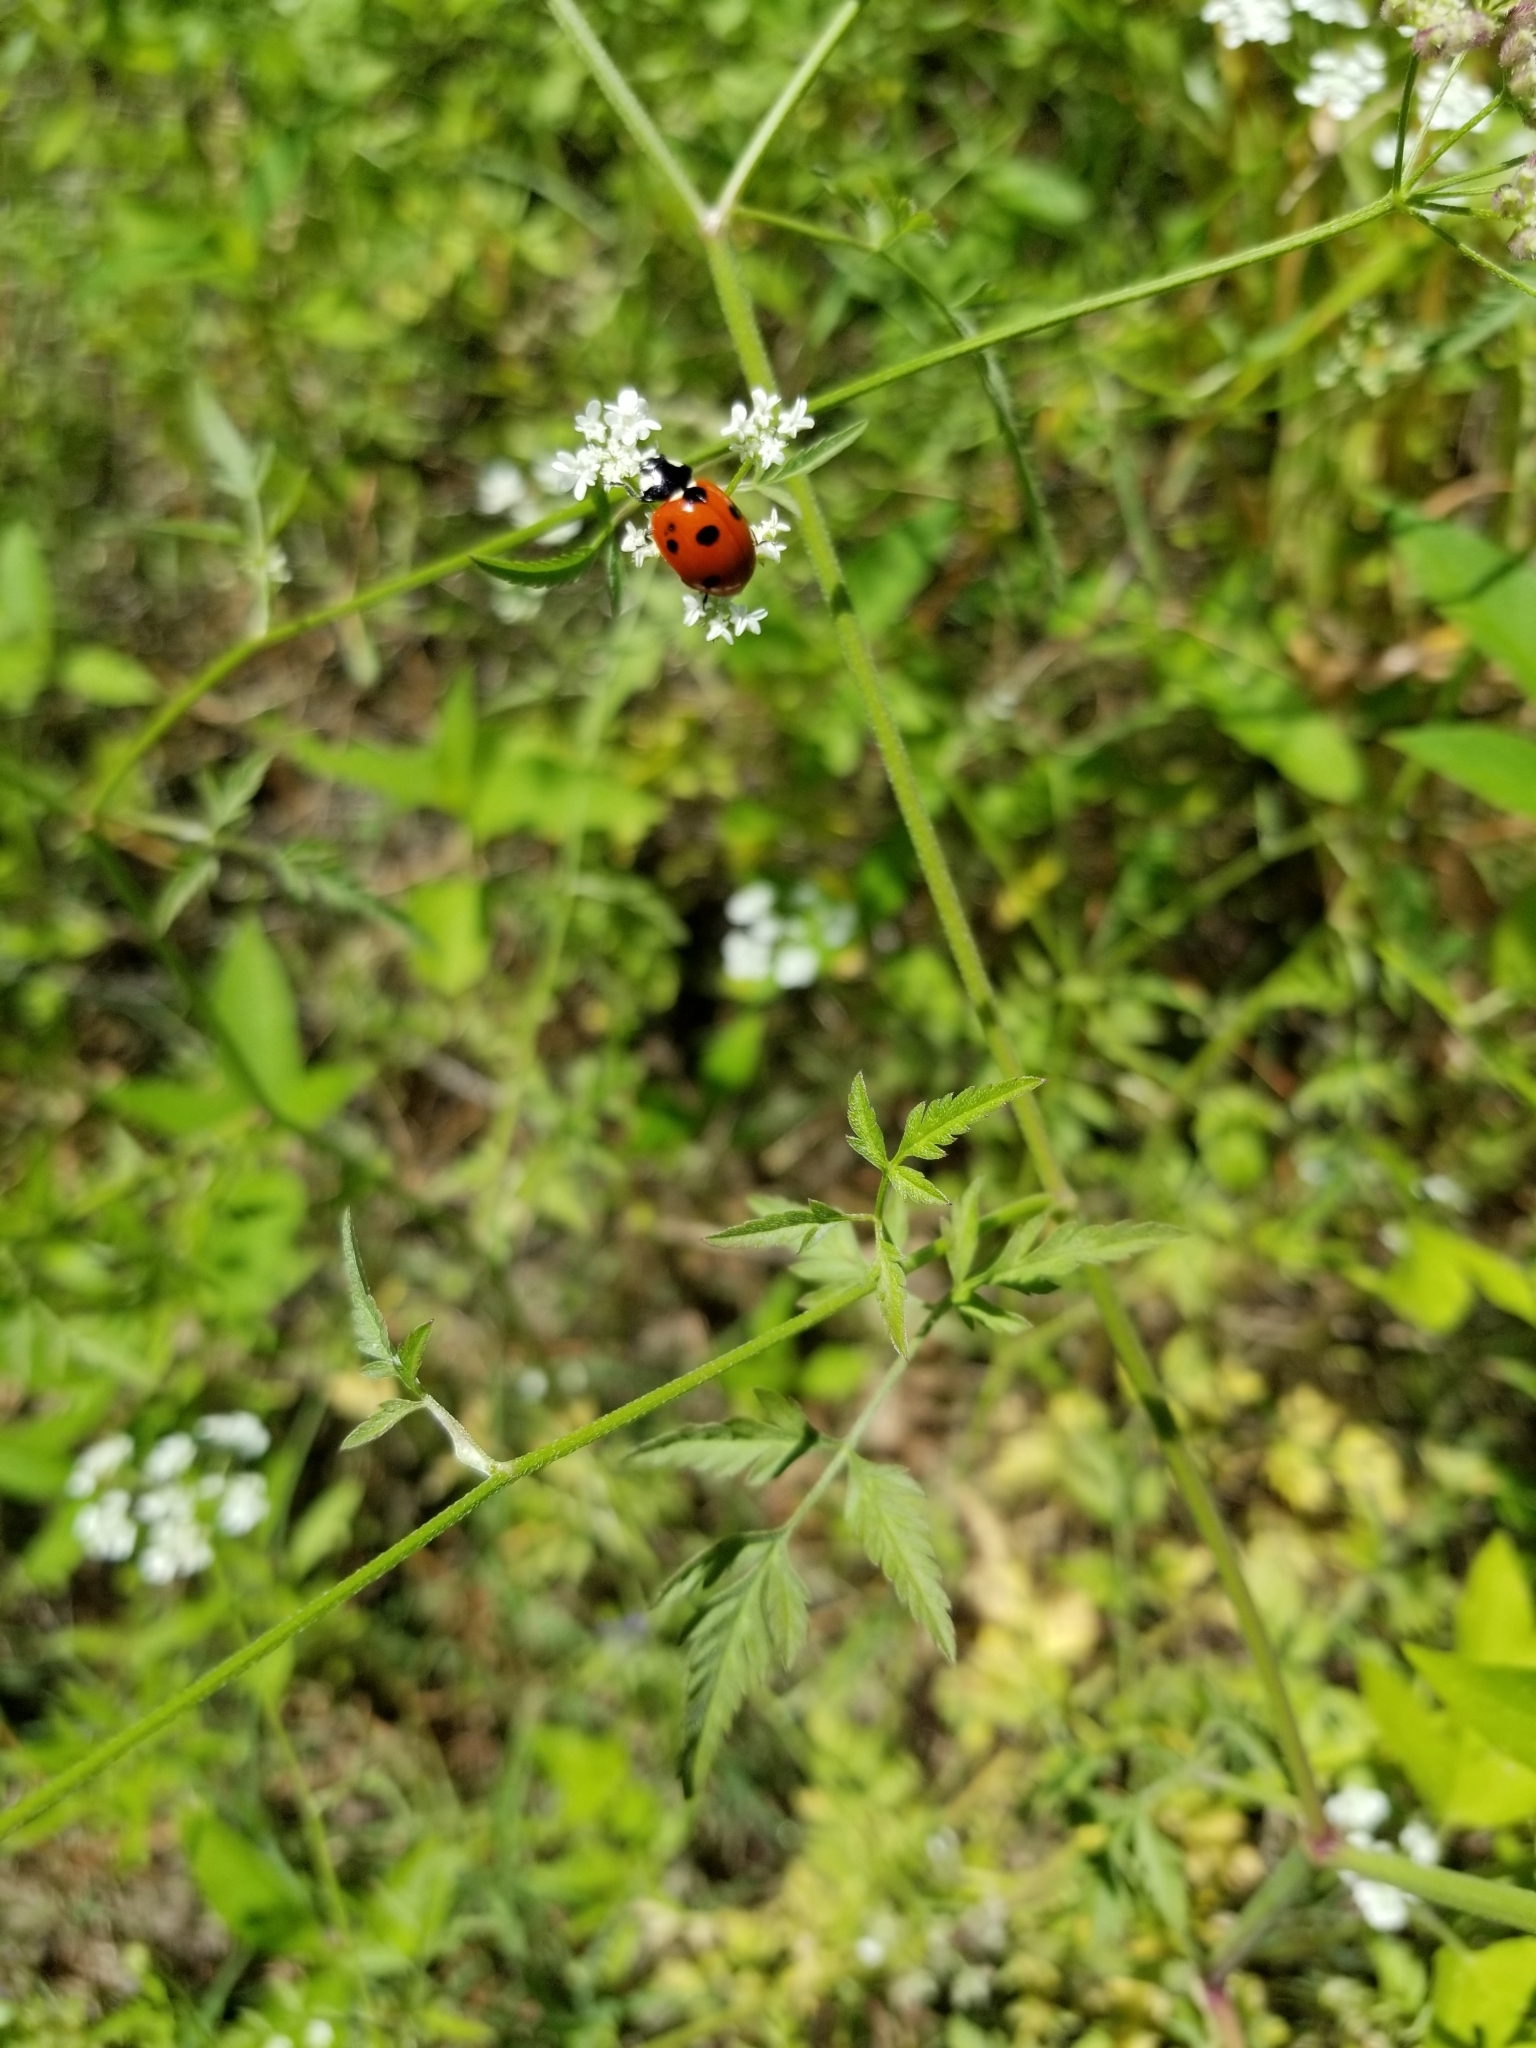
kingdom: Animalia
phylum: Arthropoda
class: Insecta
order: Coleoptera
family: Coccinellidae
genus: Coccinella
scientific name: Coccinella septempunctata
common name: Sevenspotted lady beetle
